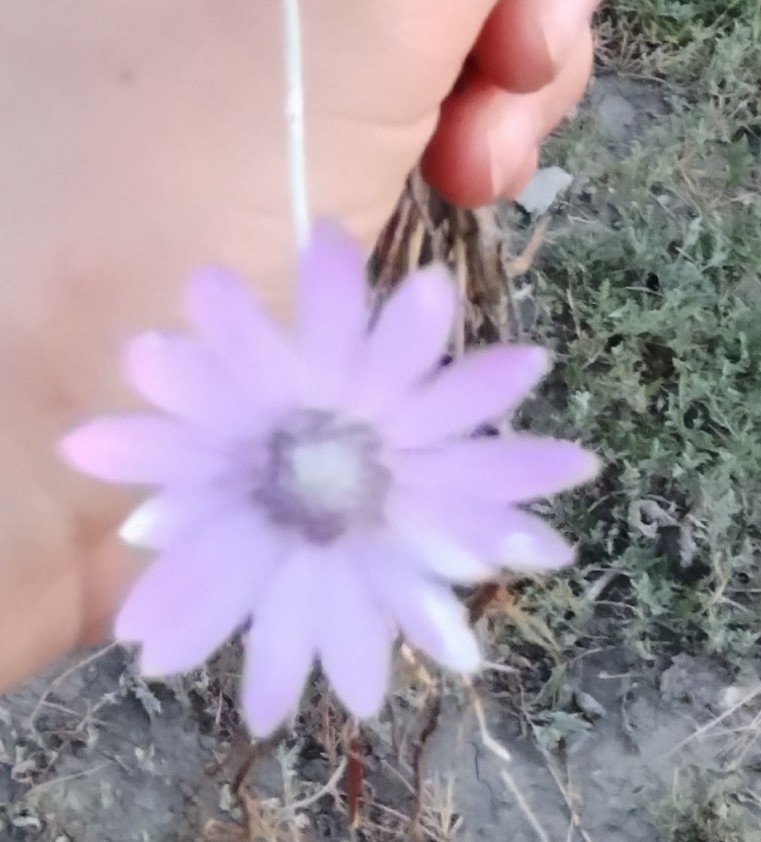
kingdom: Plantae
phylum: Tracheophyta
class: Magnoliopsida
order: Asterales
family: Asteraceae
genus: Xeranthemum
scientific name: Xeranthemum annuum
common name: Immortelle
